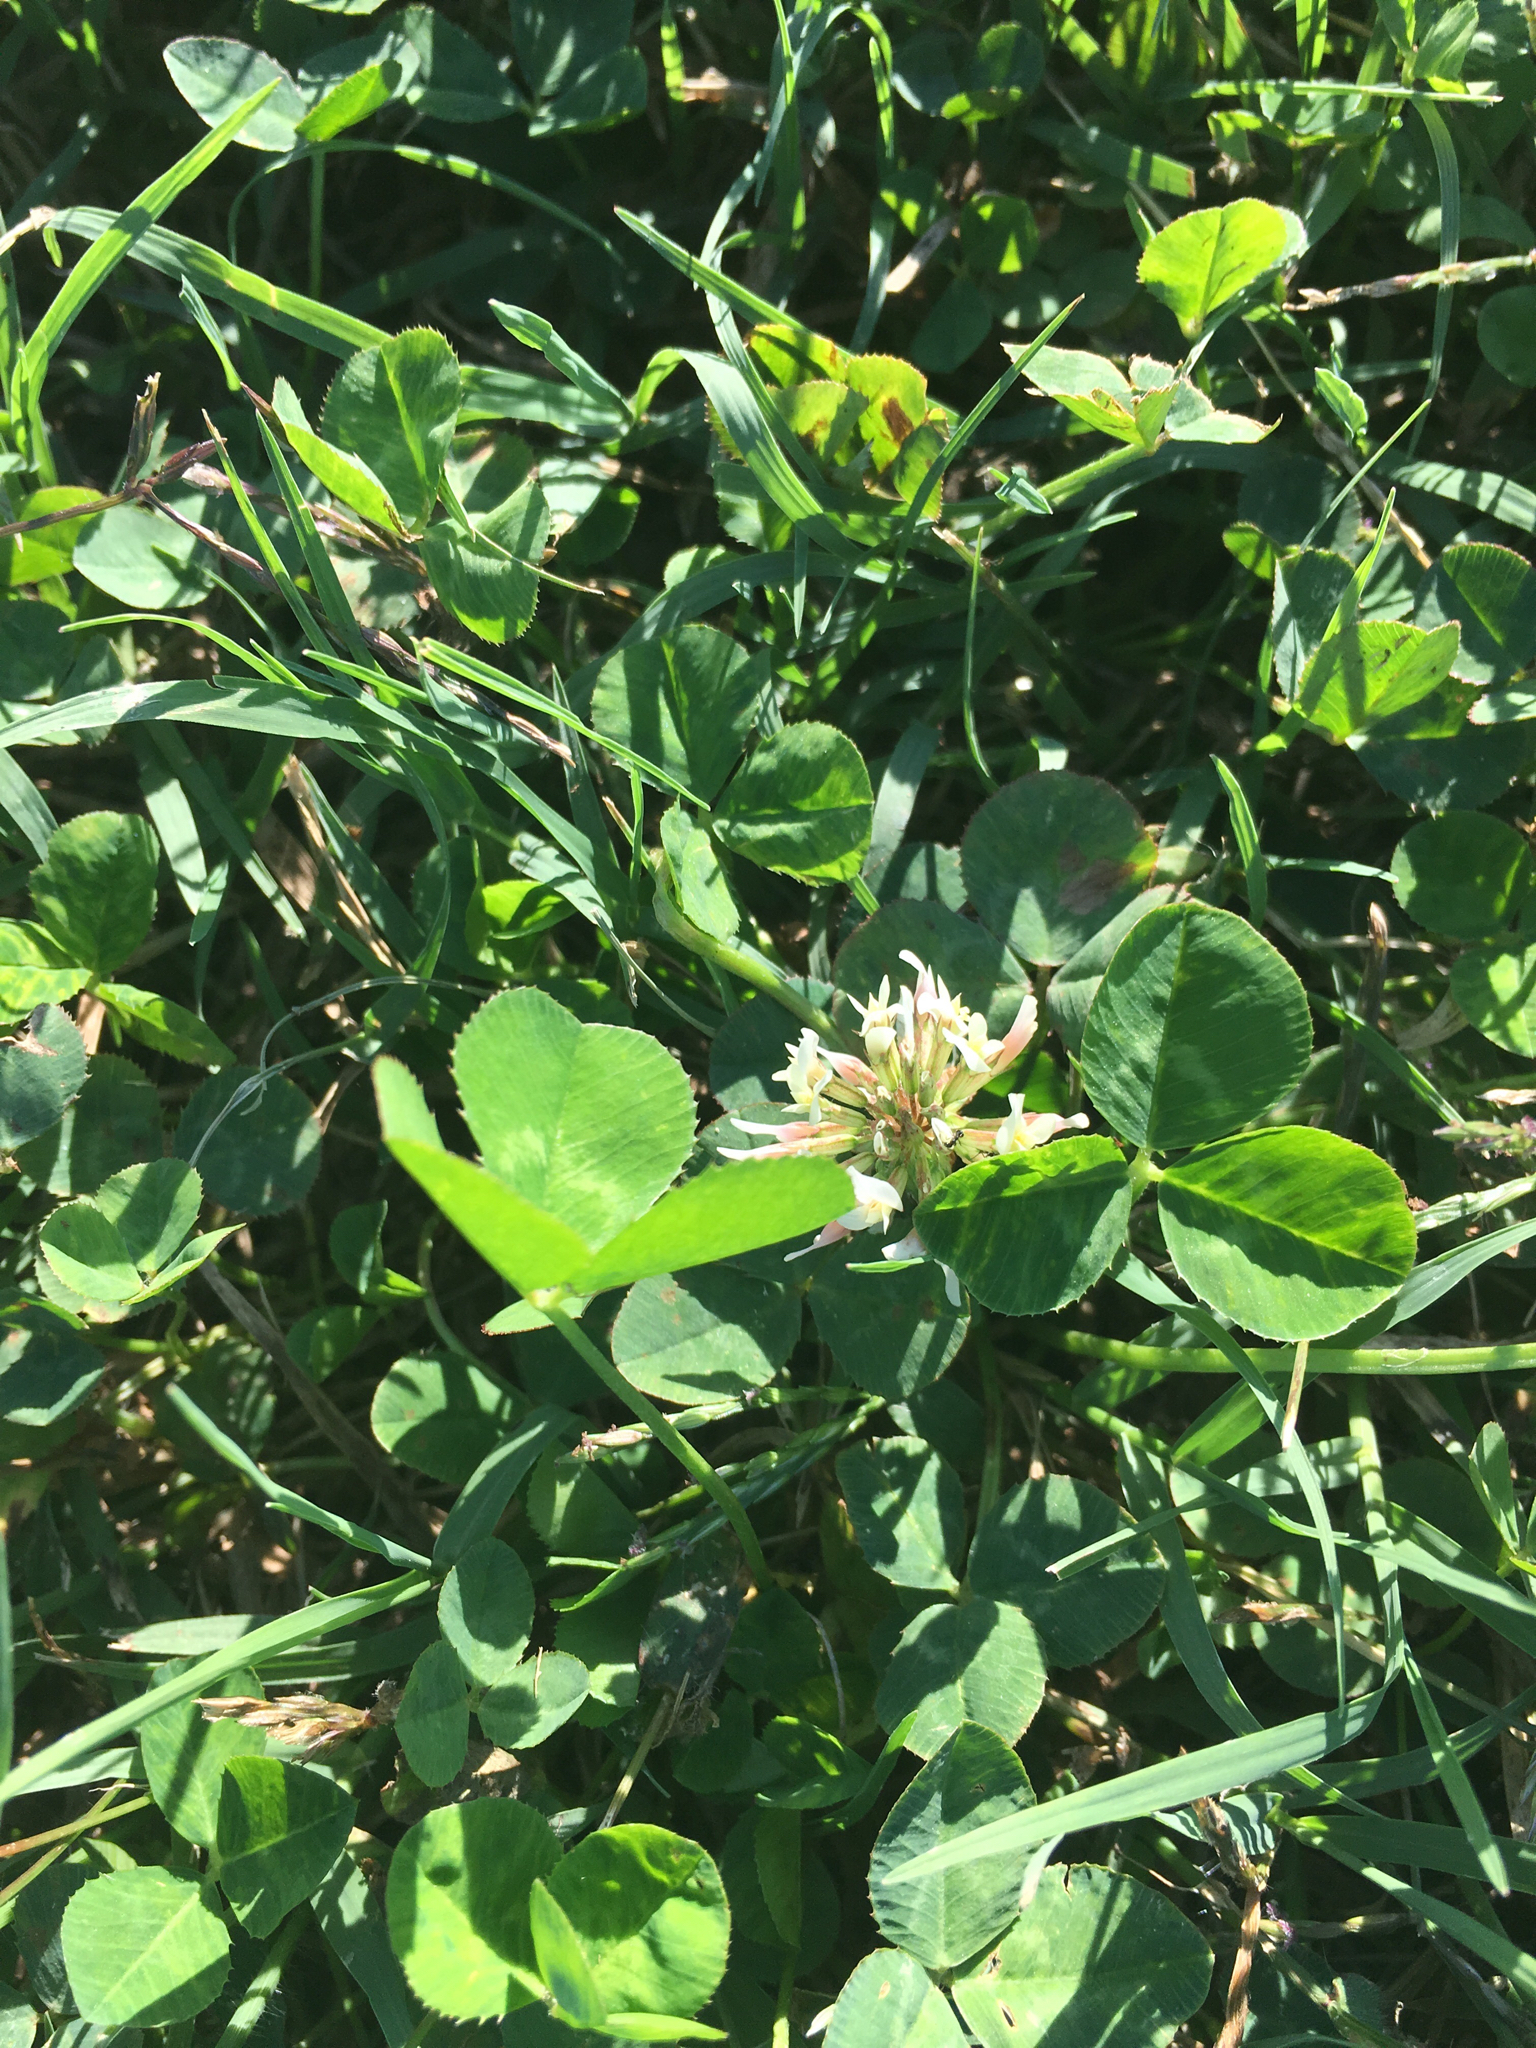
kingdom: Plantae
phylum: Tracheophyta
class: Magnoliopsida
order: Fabales
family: Fabaceae
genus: Trifolium
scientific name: Trifolium repens
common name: White clover
